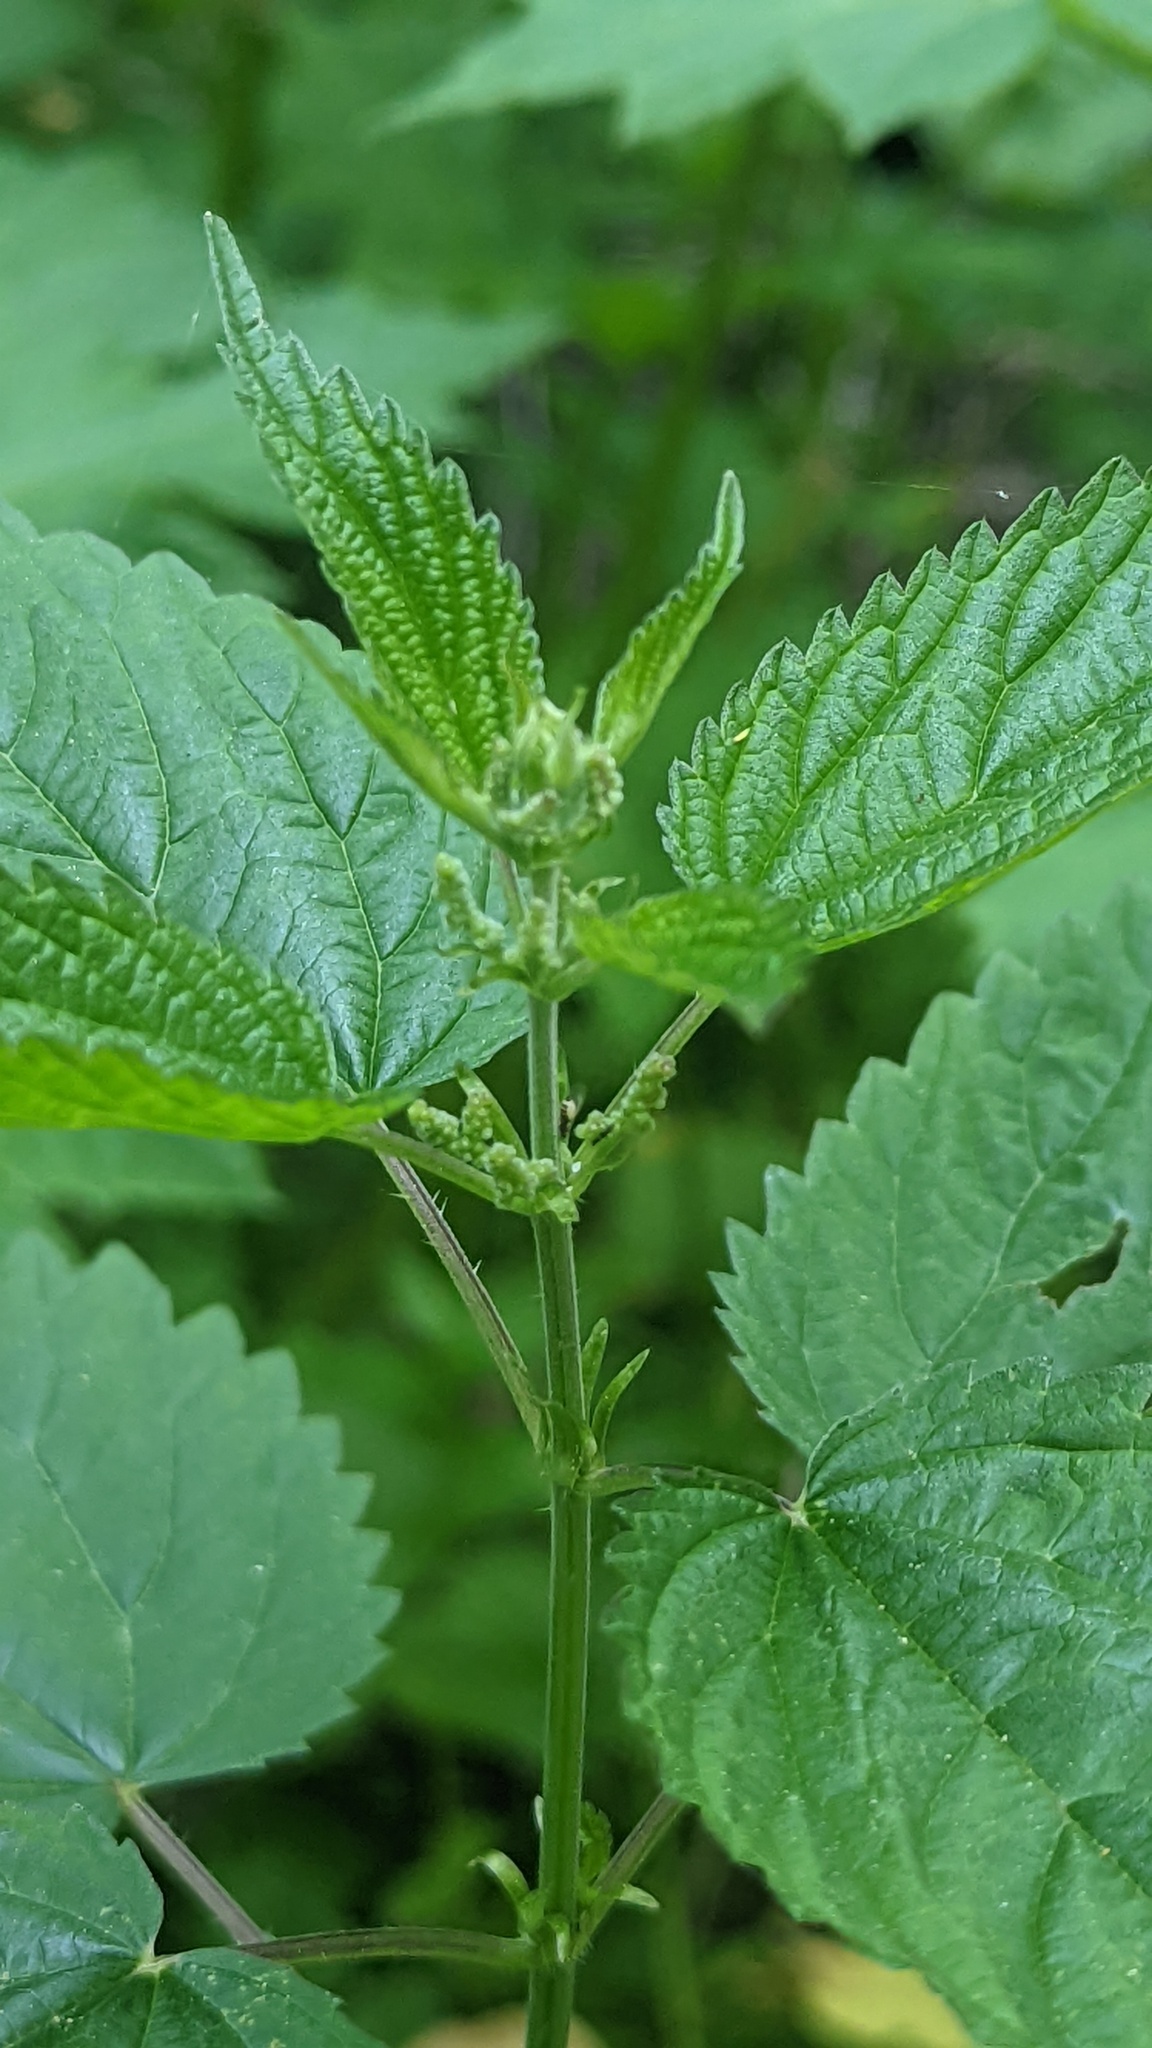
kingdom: Plantae
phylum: Tracheophyta
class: Magnoliopsida
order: Rosales
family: Urticaceae
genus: Urtica
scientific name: Urtica gracilis
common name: Slender stinging nettle
